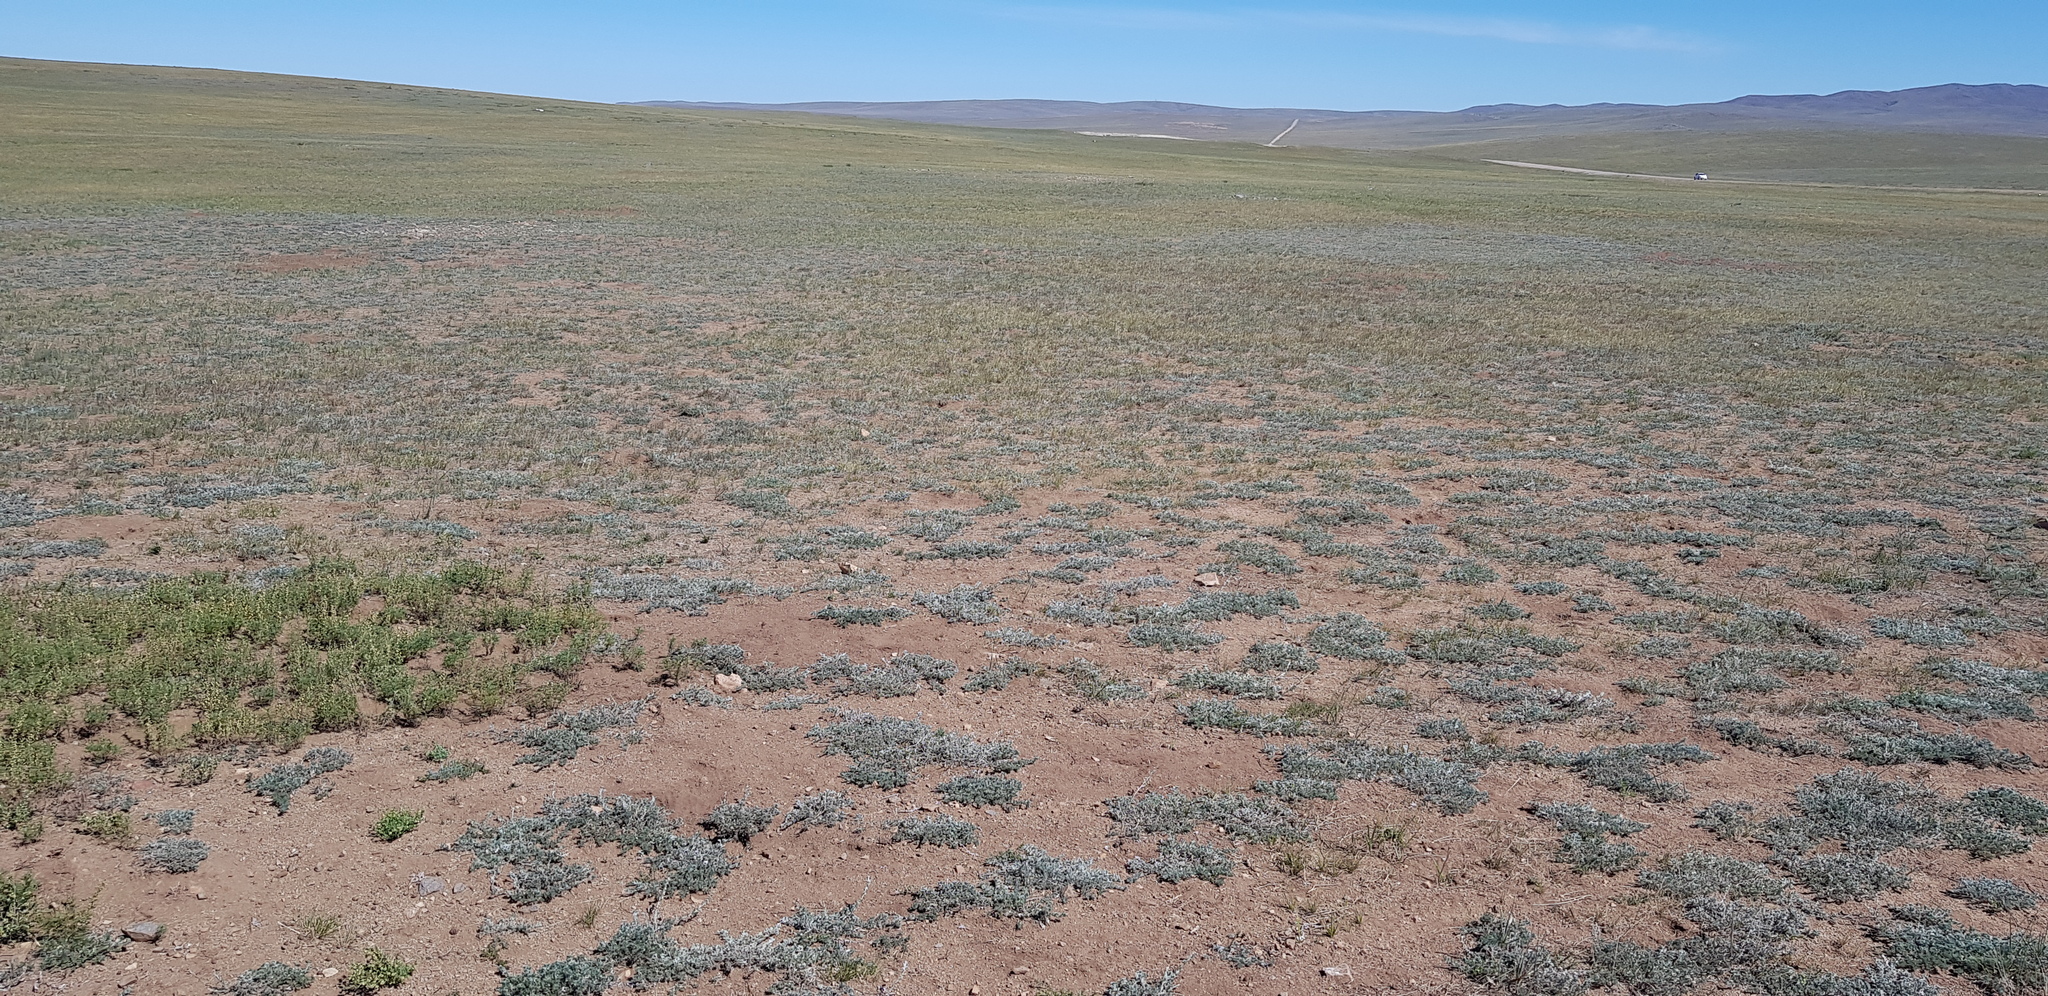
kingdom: Plantae
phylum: Tracheophyta
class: Magnoliopsida
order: Asterales
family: Asteraceae
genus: Artemisia
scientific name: Artemisia frigida
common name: Prairie sagewort
